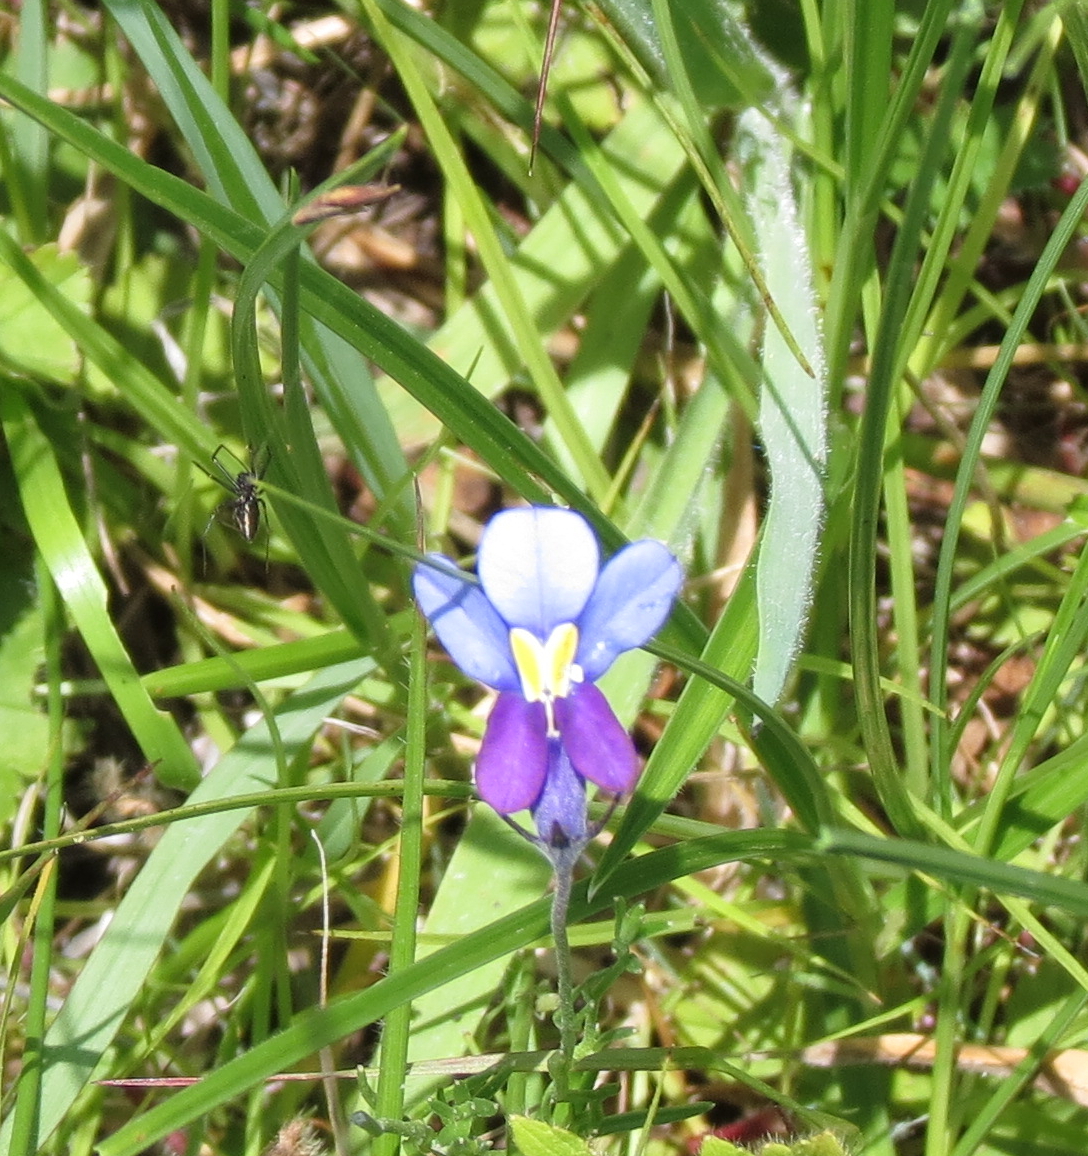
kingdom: Plantae
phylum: Tracheophyta
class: Magnoliopsida
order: Asterales
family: Campanulaceae
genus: Monopsis
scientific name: Monopsis decipiens
